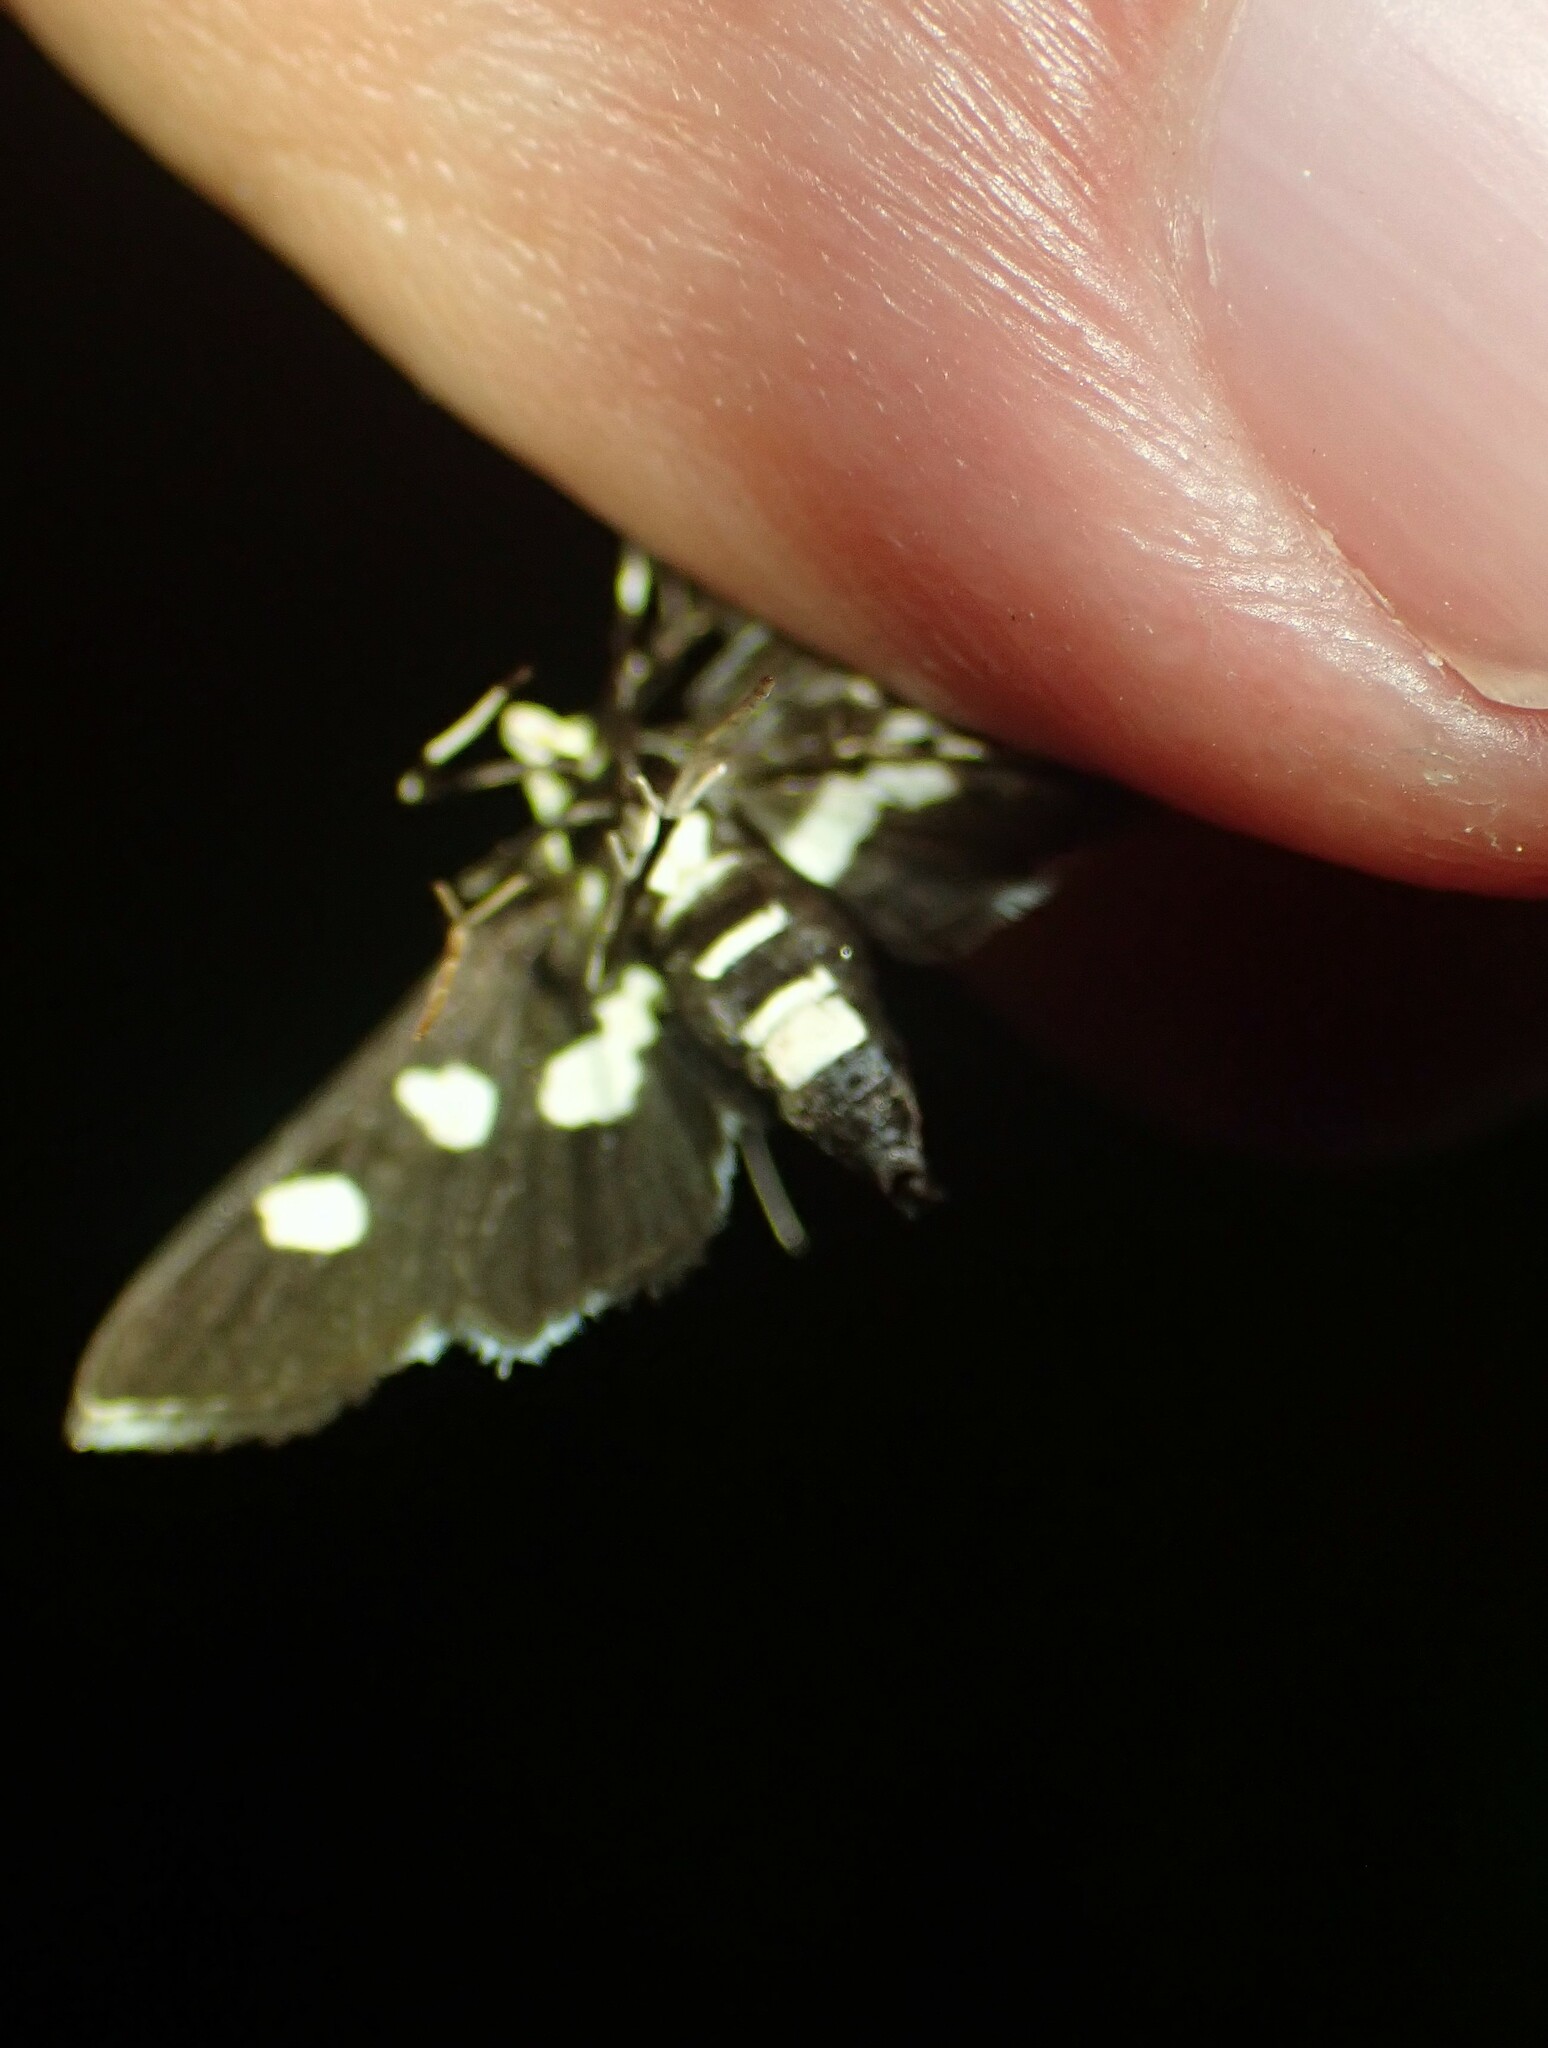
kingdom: Animalia
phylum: Arthropoda
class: Insecta
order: Lepidoptera
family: Crambidae
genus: Desmia
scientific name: Desmia funeralis
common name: Grape leaf folder moth
